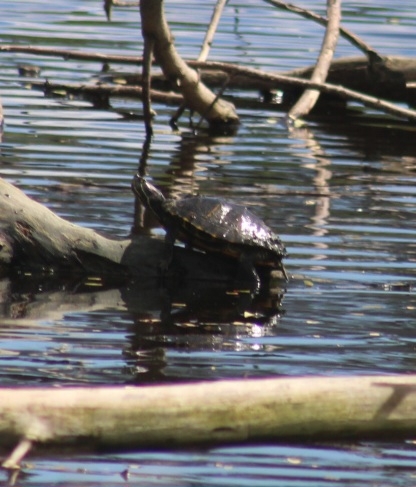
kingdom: Animalia
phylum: Chordata
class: Testudines
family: Emydidae
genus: Trachemys
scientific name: Trachemys scripta
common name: Slider
